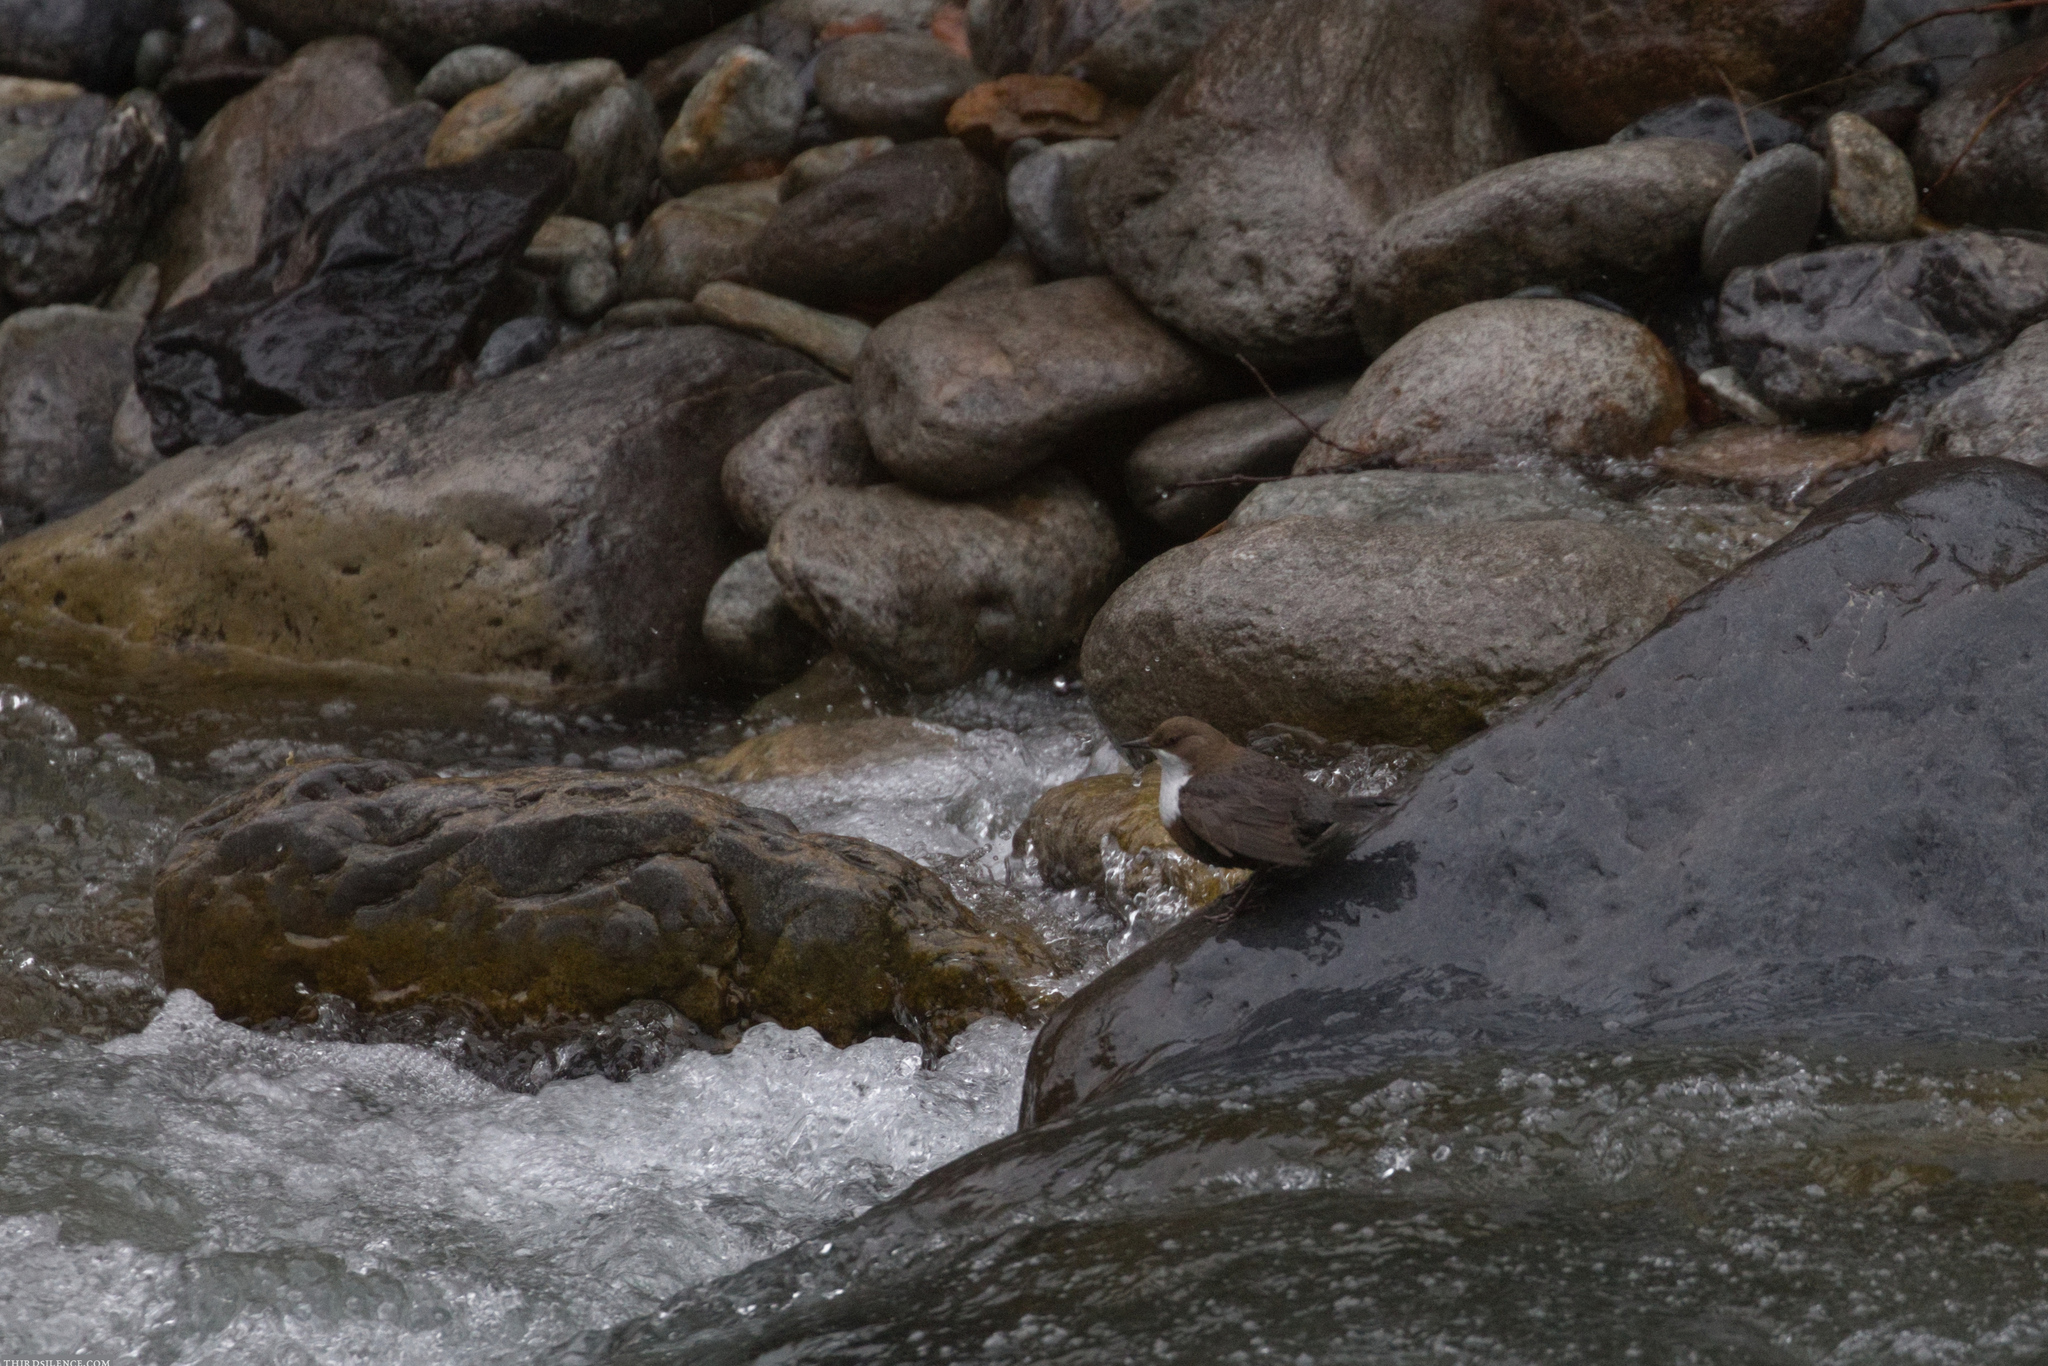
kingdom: Animalia
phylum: Chordata
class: Aves
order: Passeriformes
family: Cinclidae
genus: Cinclus
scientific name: Cinclus cinclus
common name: White-throated dipper
